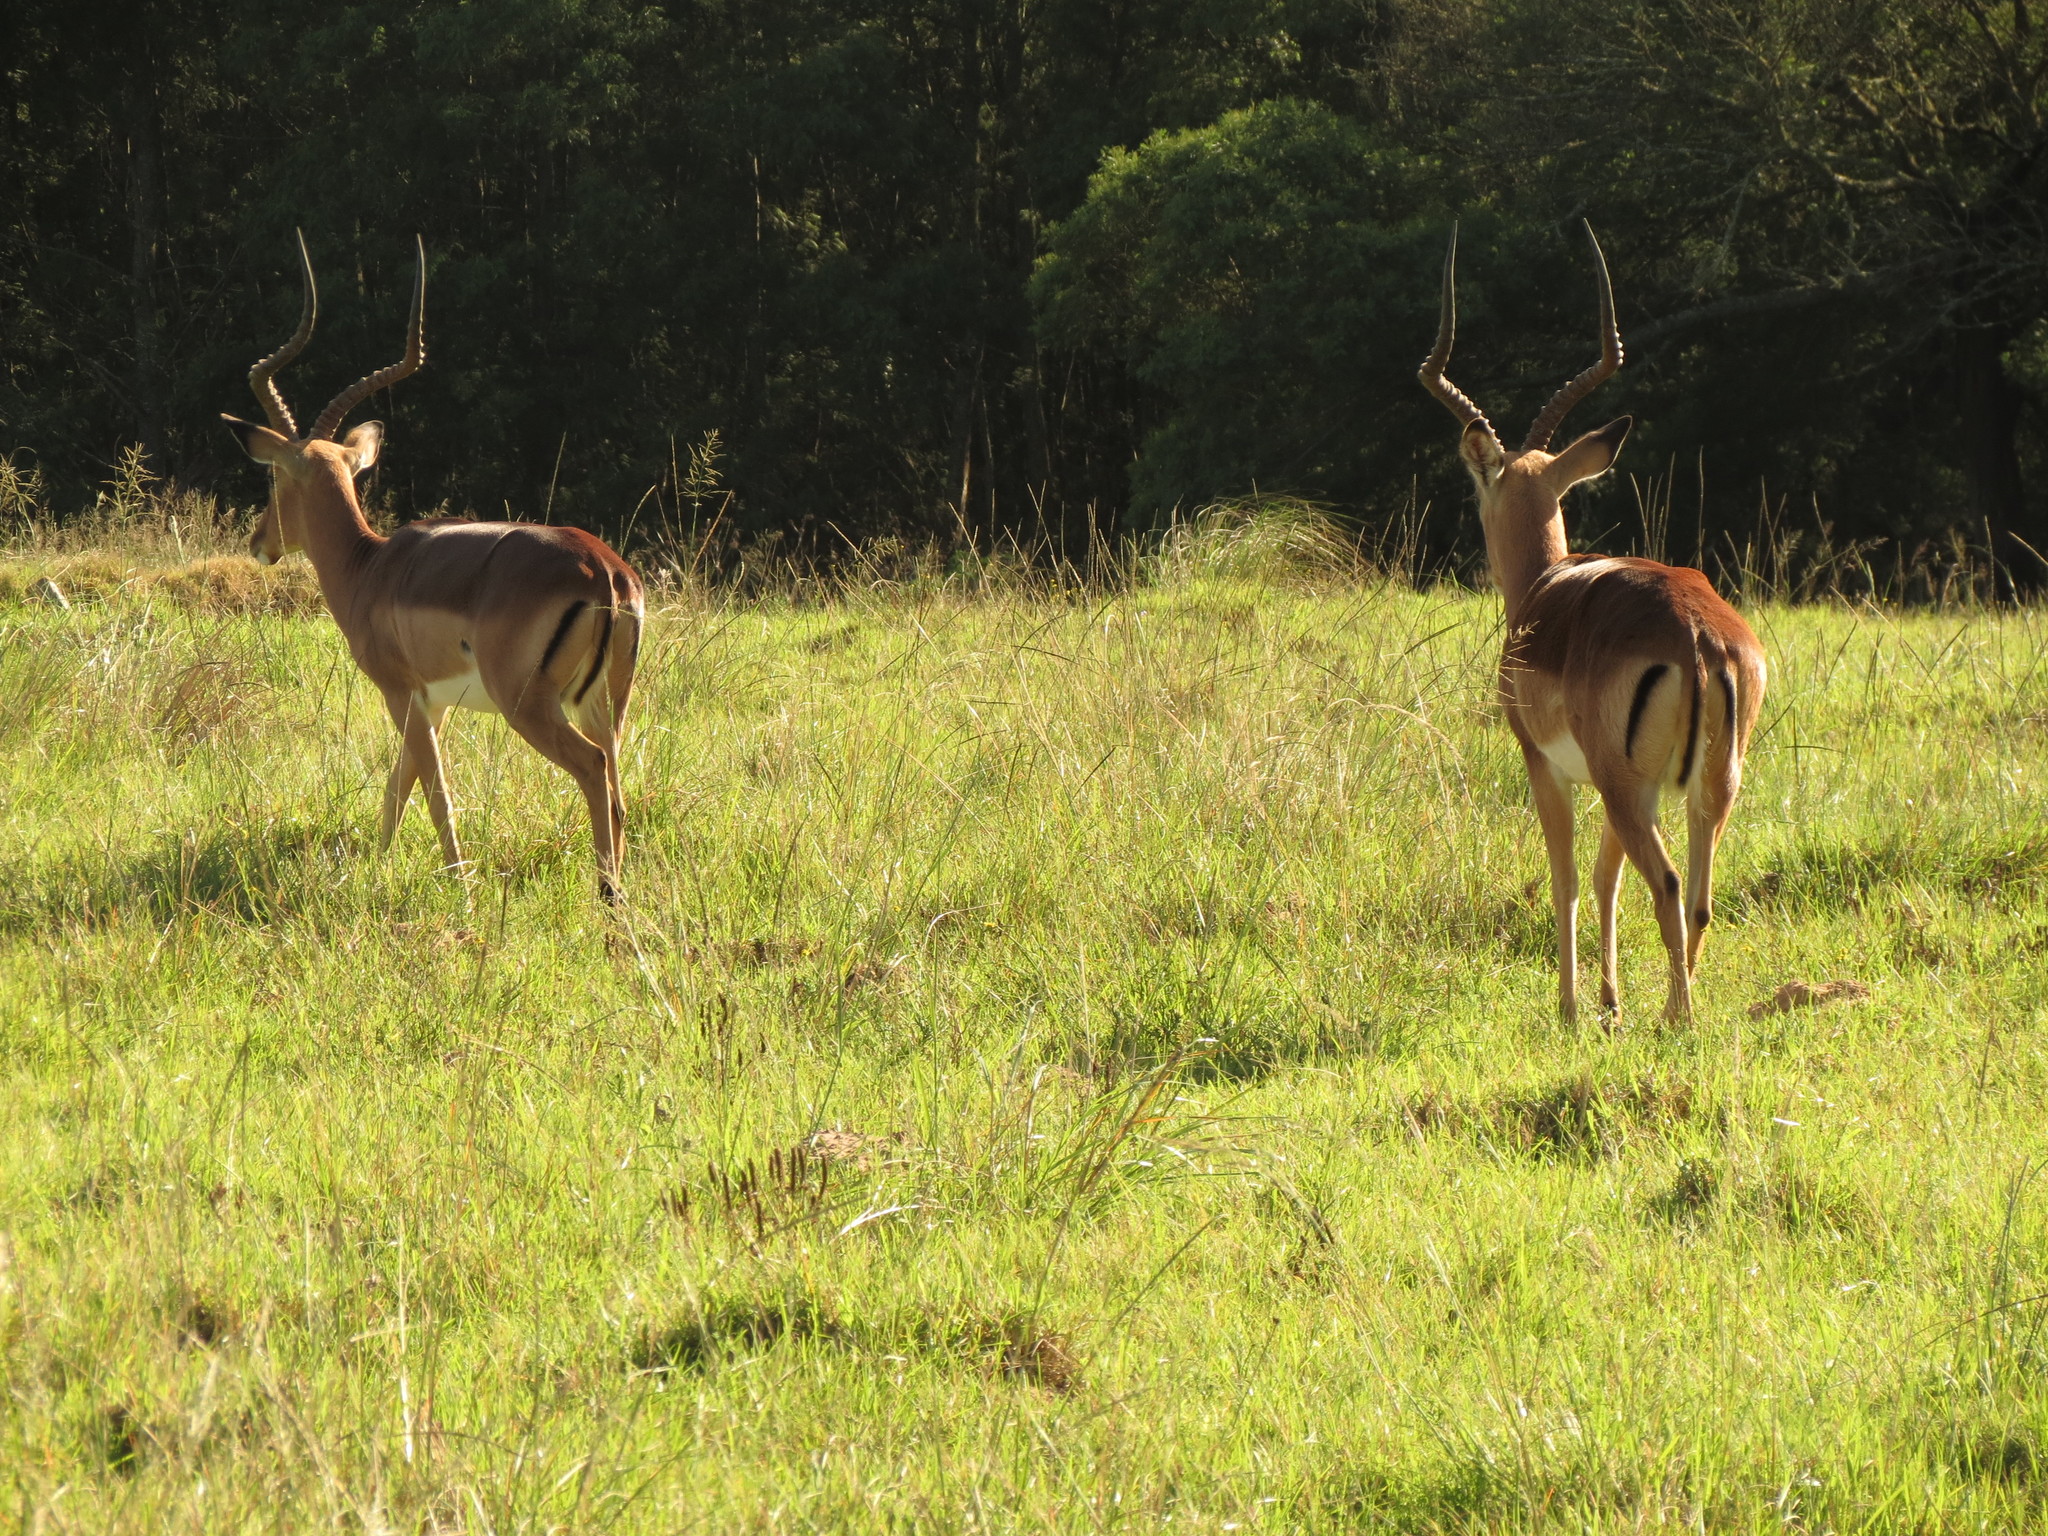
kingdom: Animalia
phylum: Chordata
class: Mammalia
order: Artiodactyla
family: Bovidae
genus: Aepyceros
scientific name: Aepyceros melampus
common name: Impala
